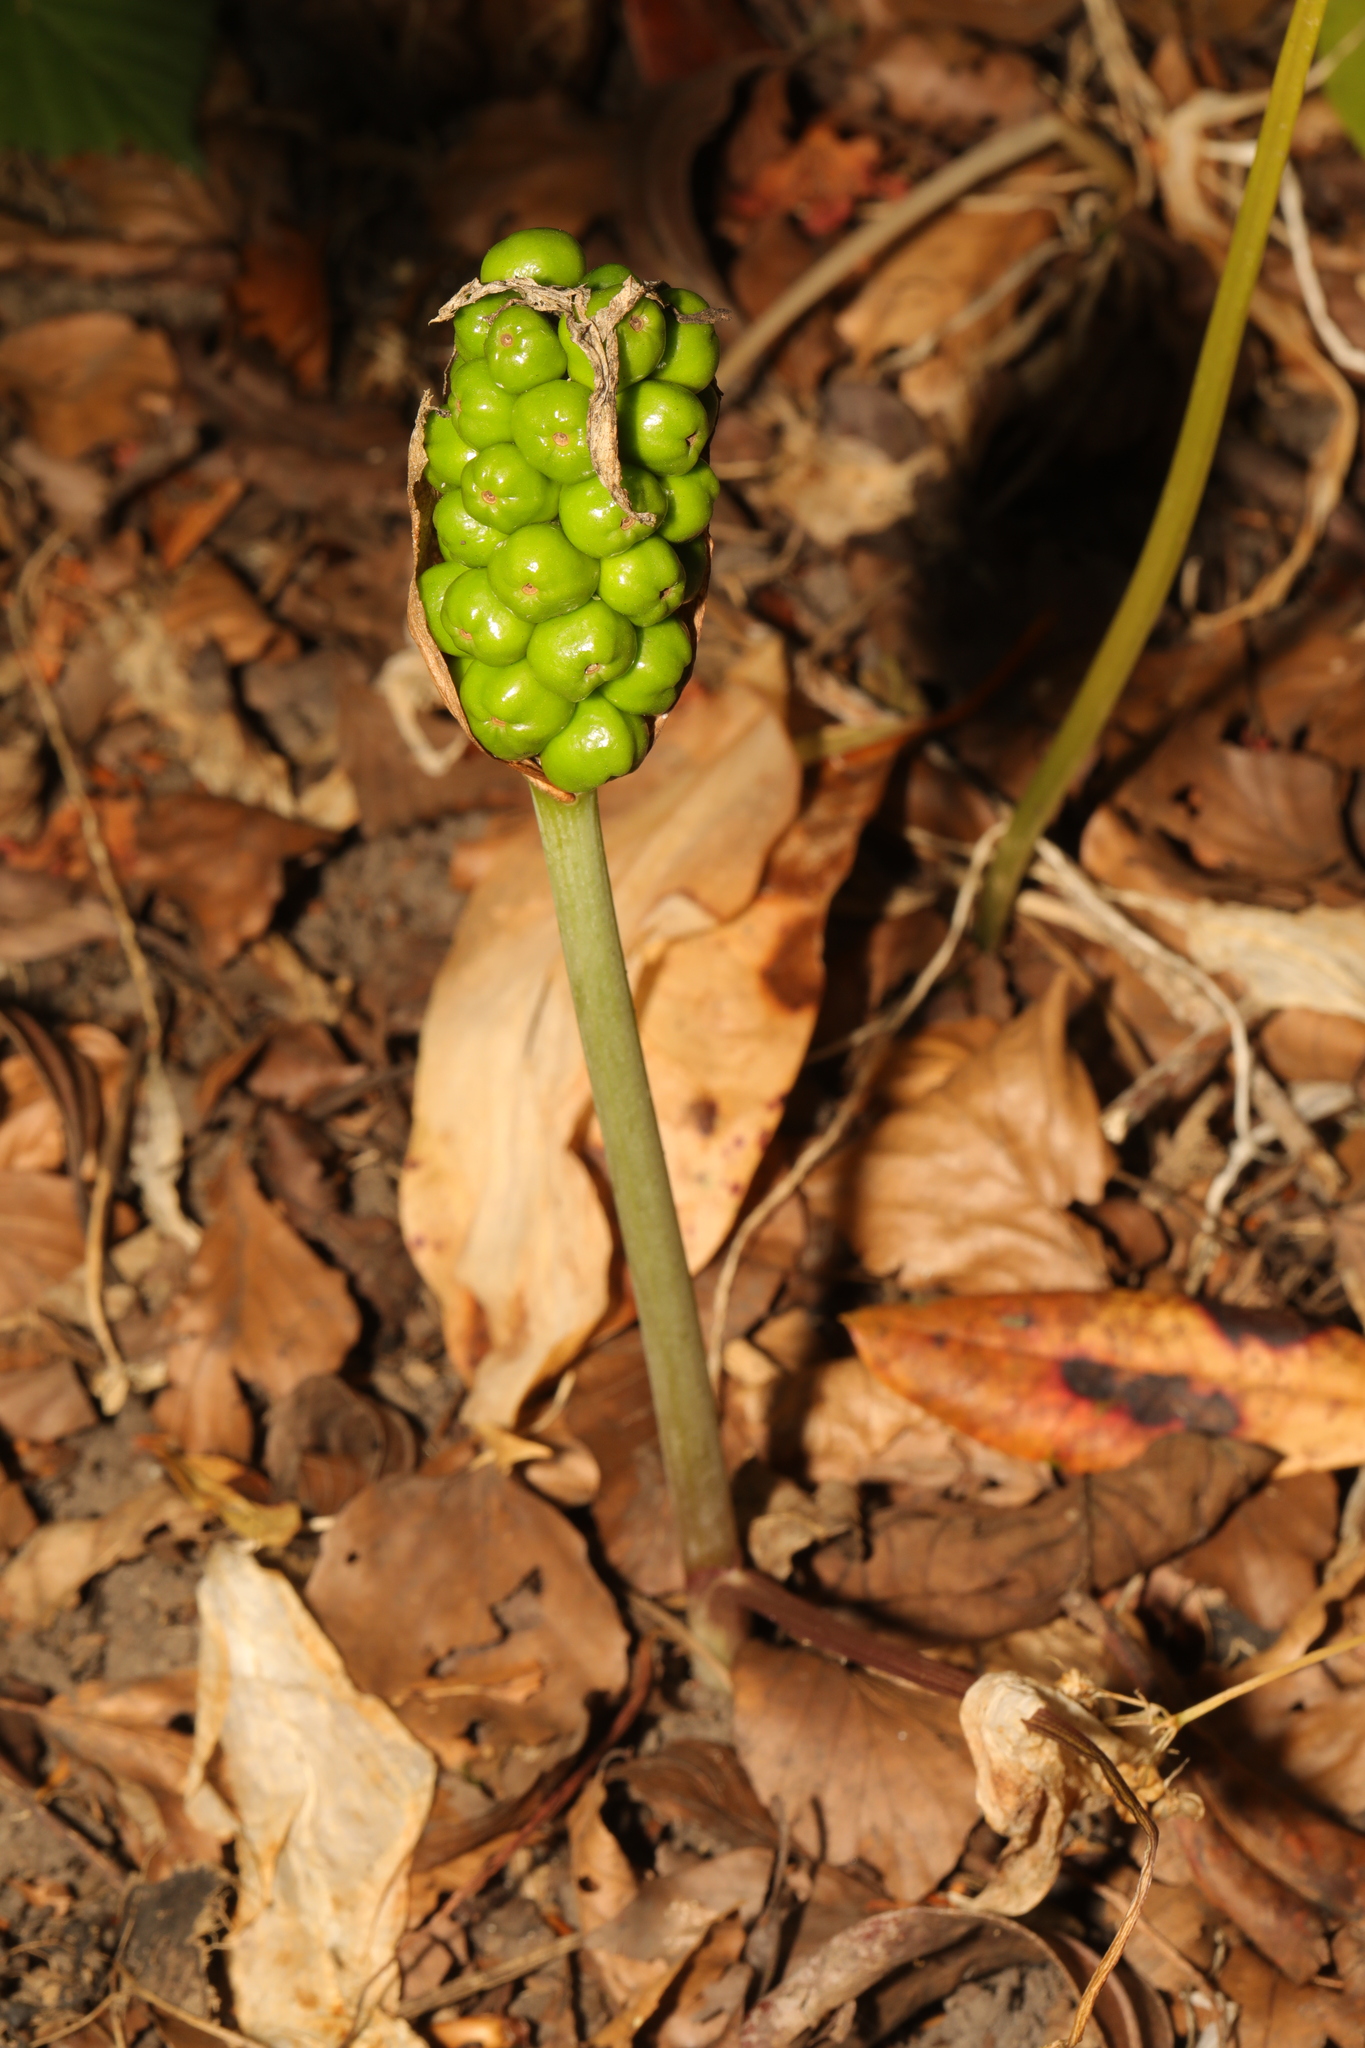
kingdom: Plantae
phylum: Tracheophyta
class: Liliopsida
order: Alismatales
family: Araceae
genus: Arum
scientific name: Arum maculatum
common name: Lords-and-ladies
